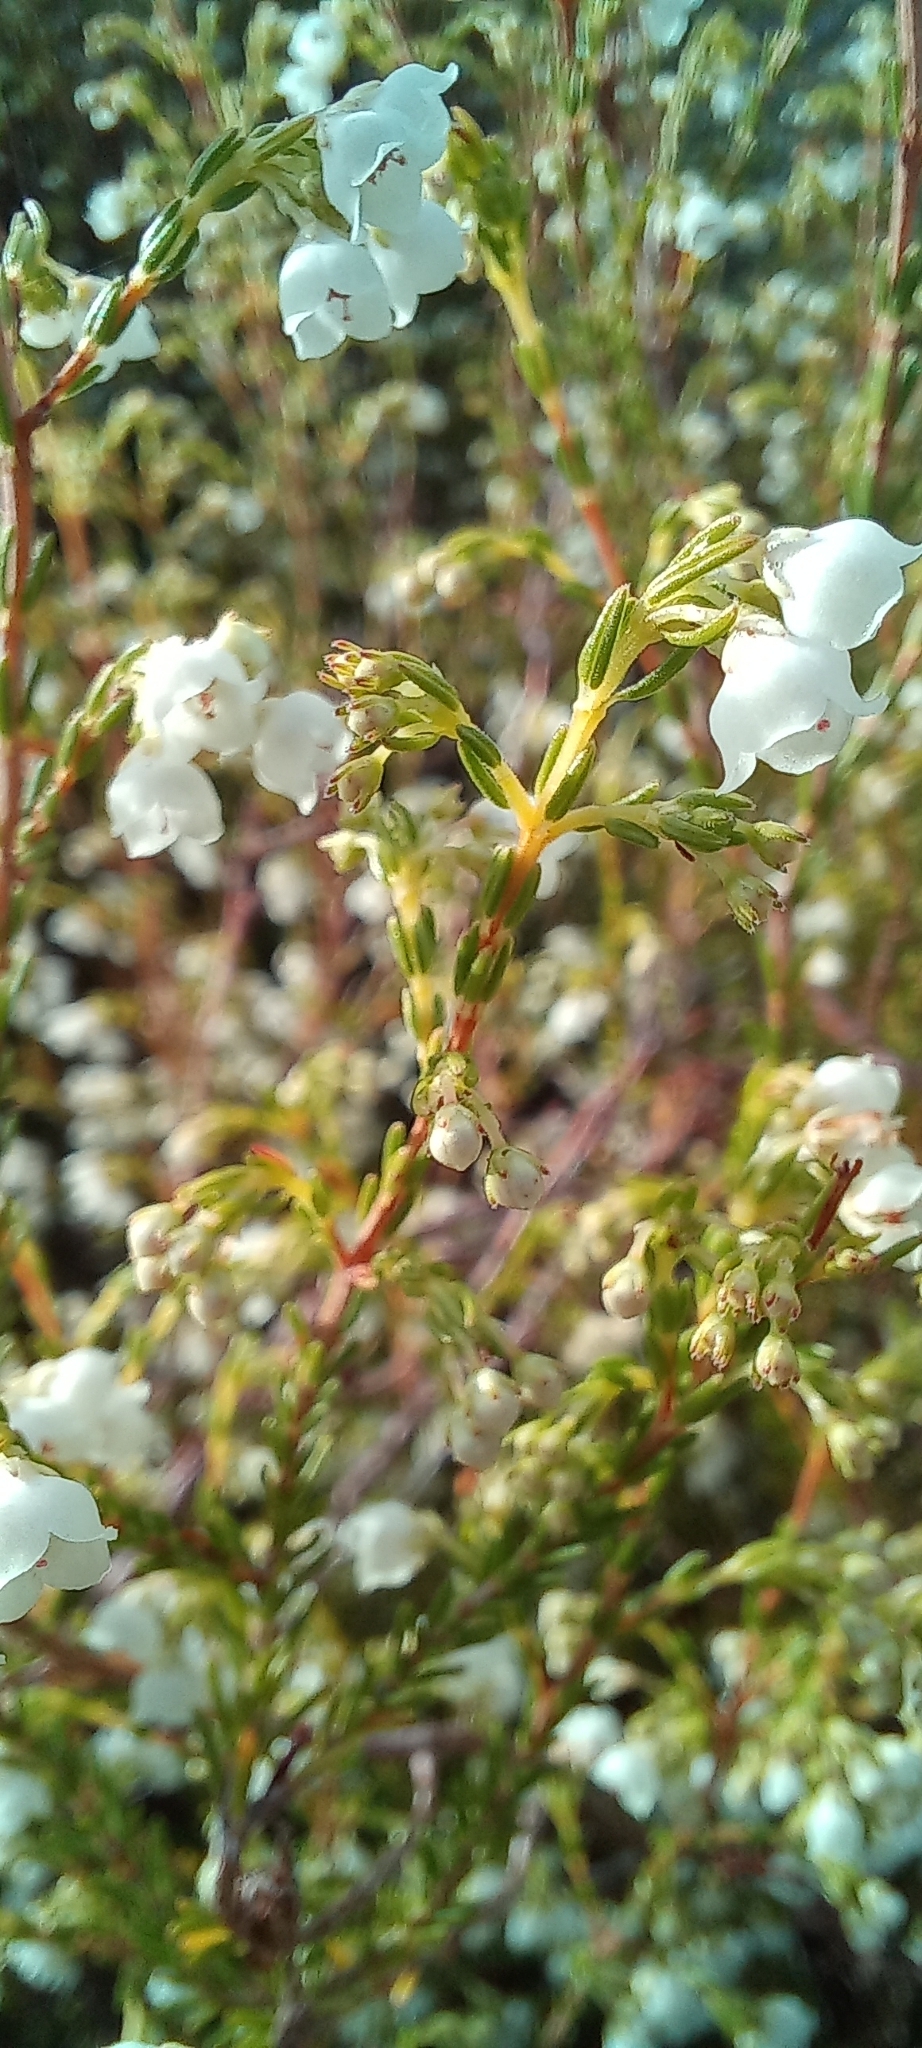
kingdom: Plantae
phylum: Tracheophyta
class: Magnoliopsida
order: Ericales
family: Ericaceae
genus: Erica
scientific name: Erica quadrangularis
